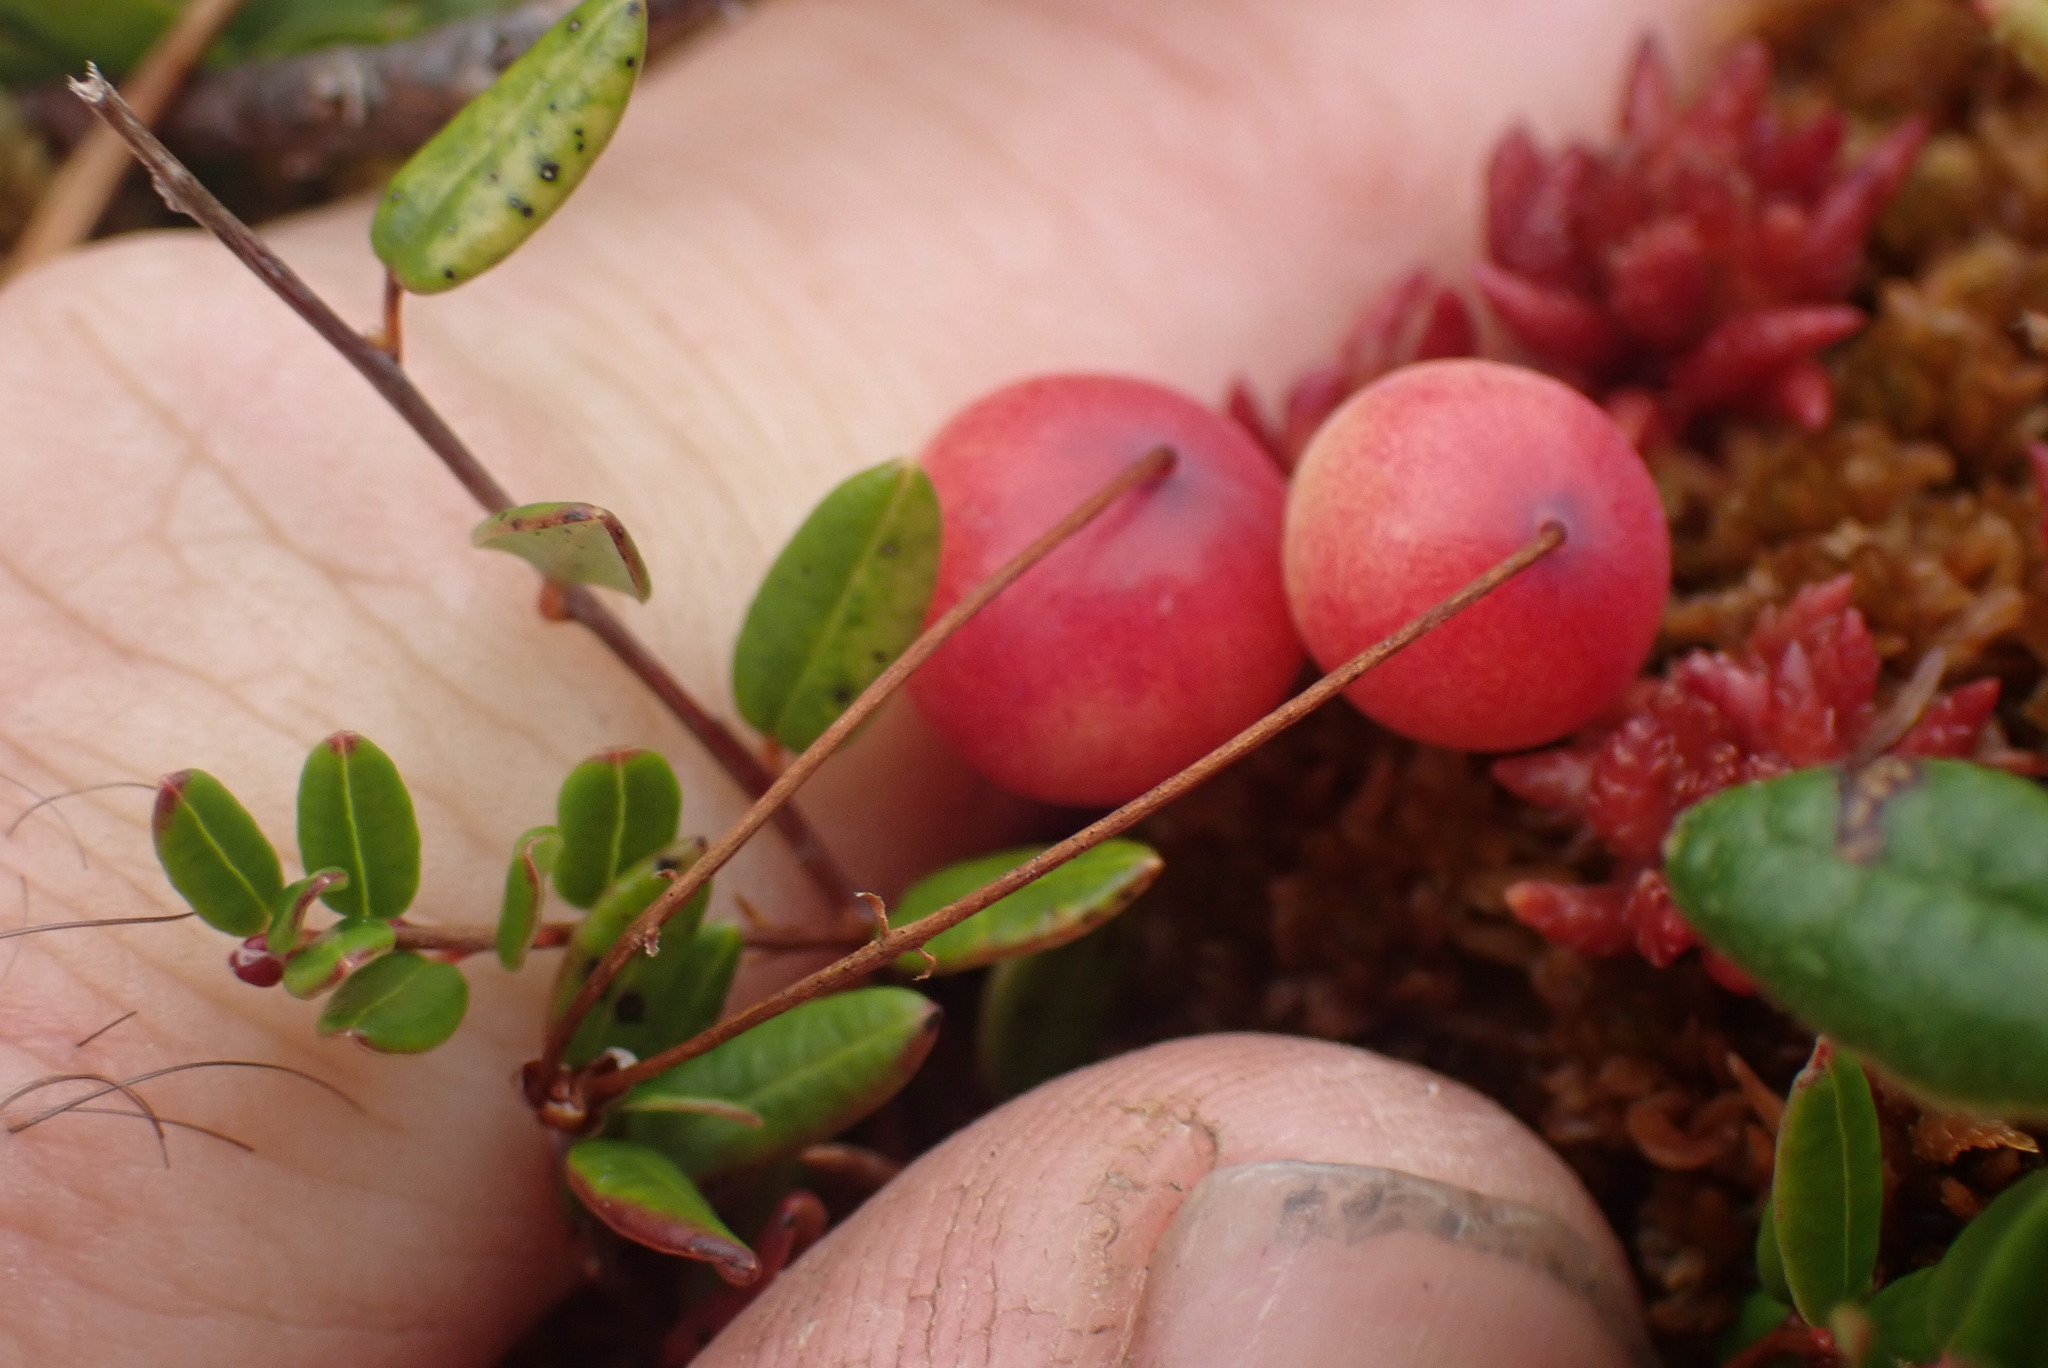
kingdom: Plantae
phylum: Tracheophyta
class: Magnoliopsida
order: Ericales
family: Ericaceae
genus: Vaccinium
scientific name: Vaccinium oxycoccos
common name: Cranberry
